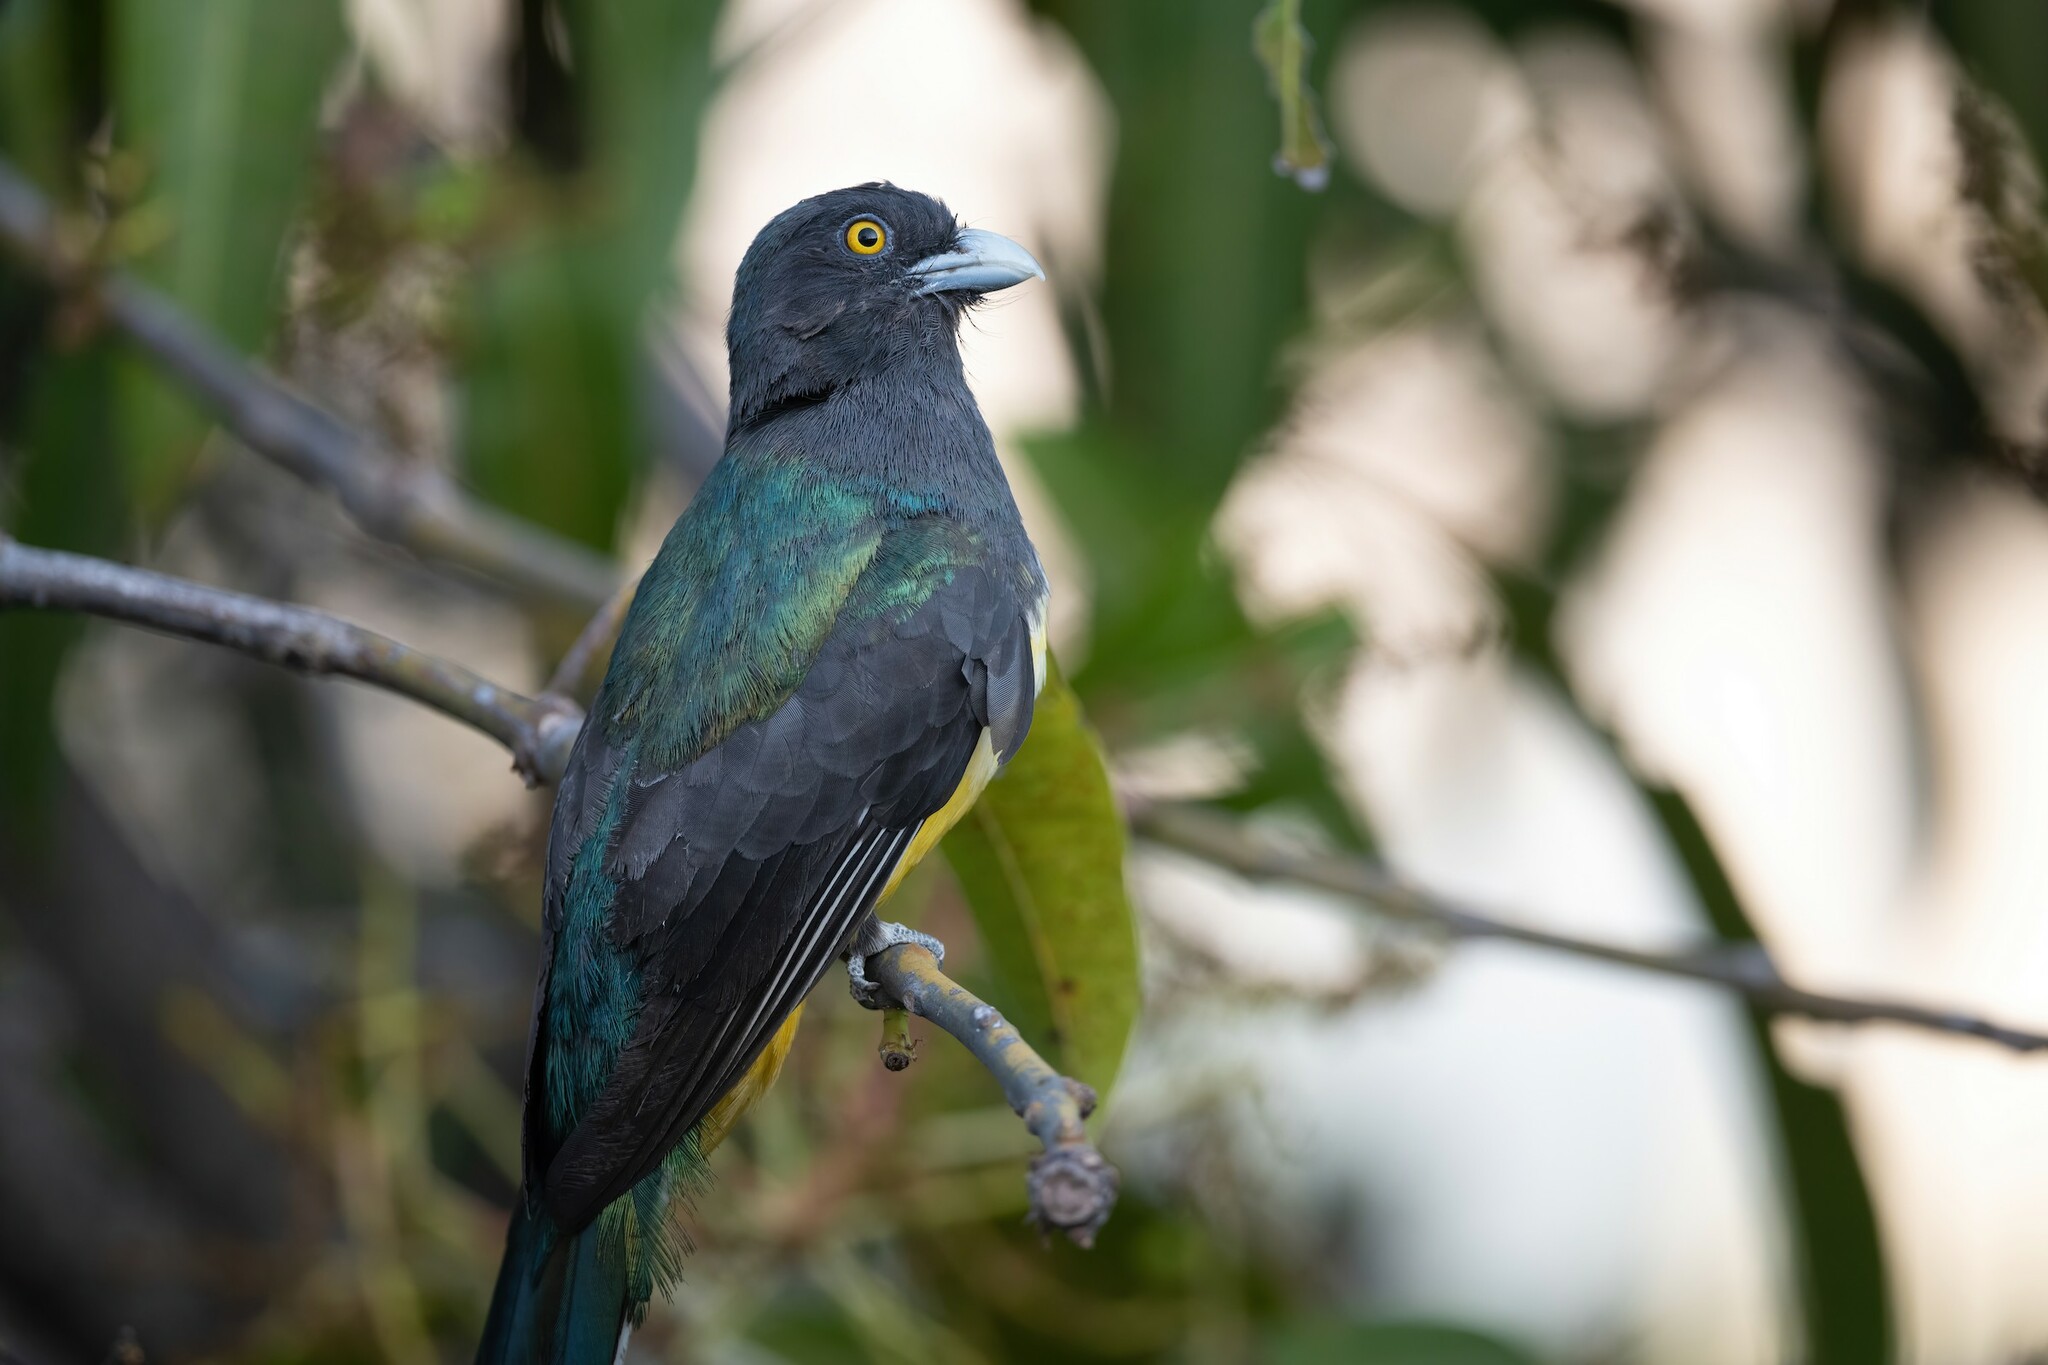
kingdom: Animalia
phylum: Chordata
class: Aves
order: Trogoniformes
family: Trogonidae
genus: Trogon
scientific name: Trogon citreolus
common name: Citreoline trogon
